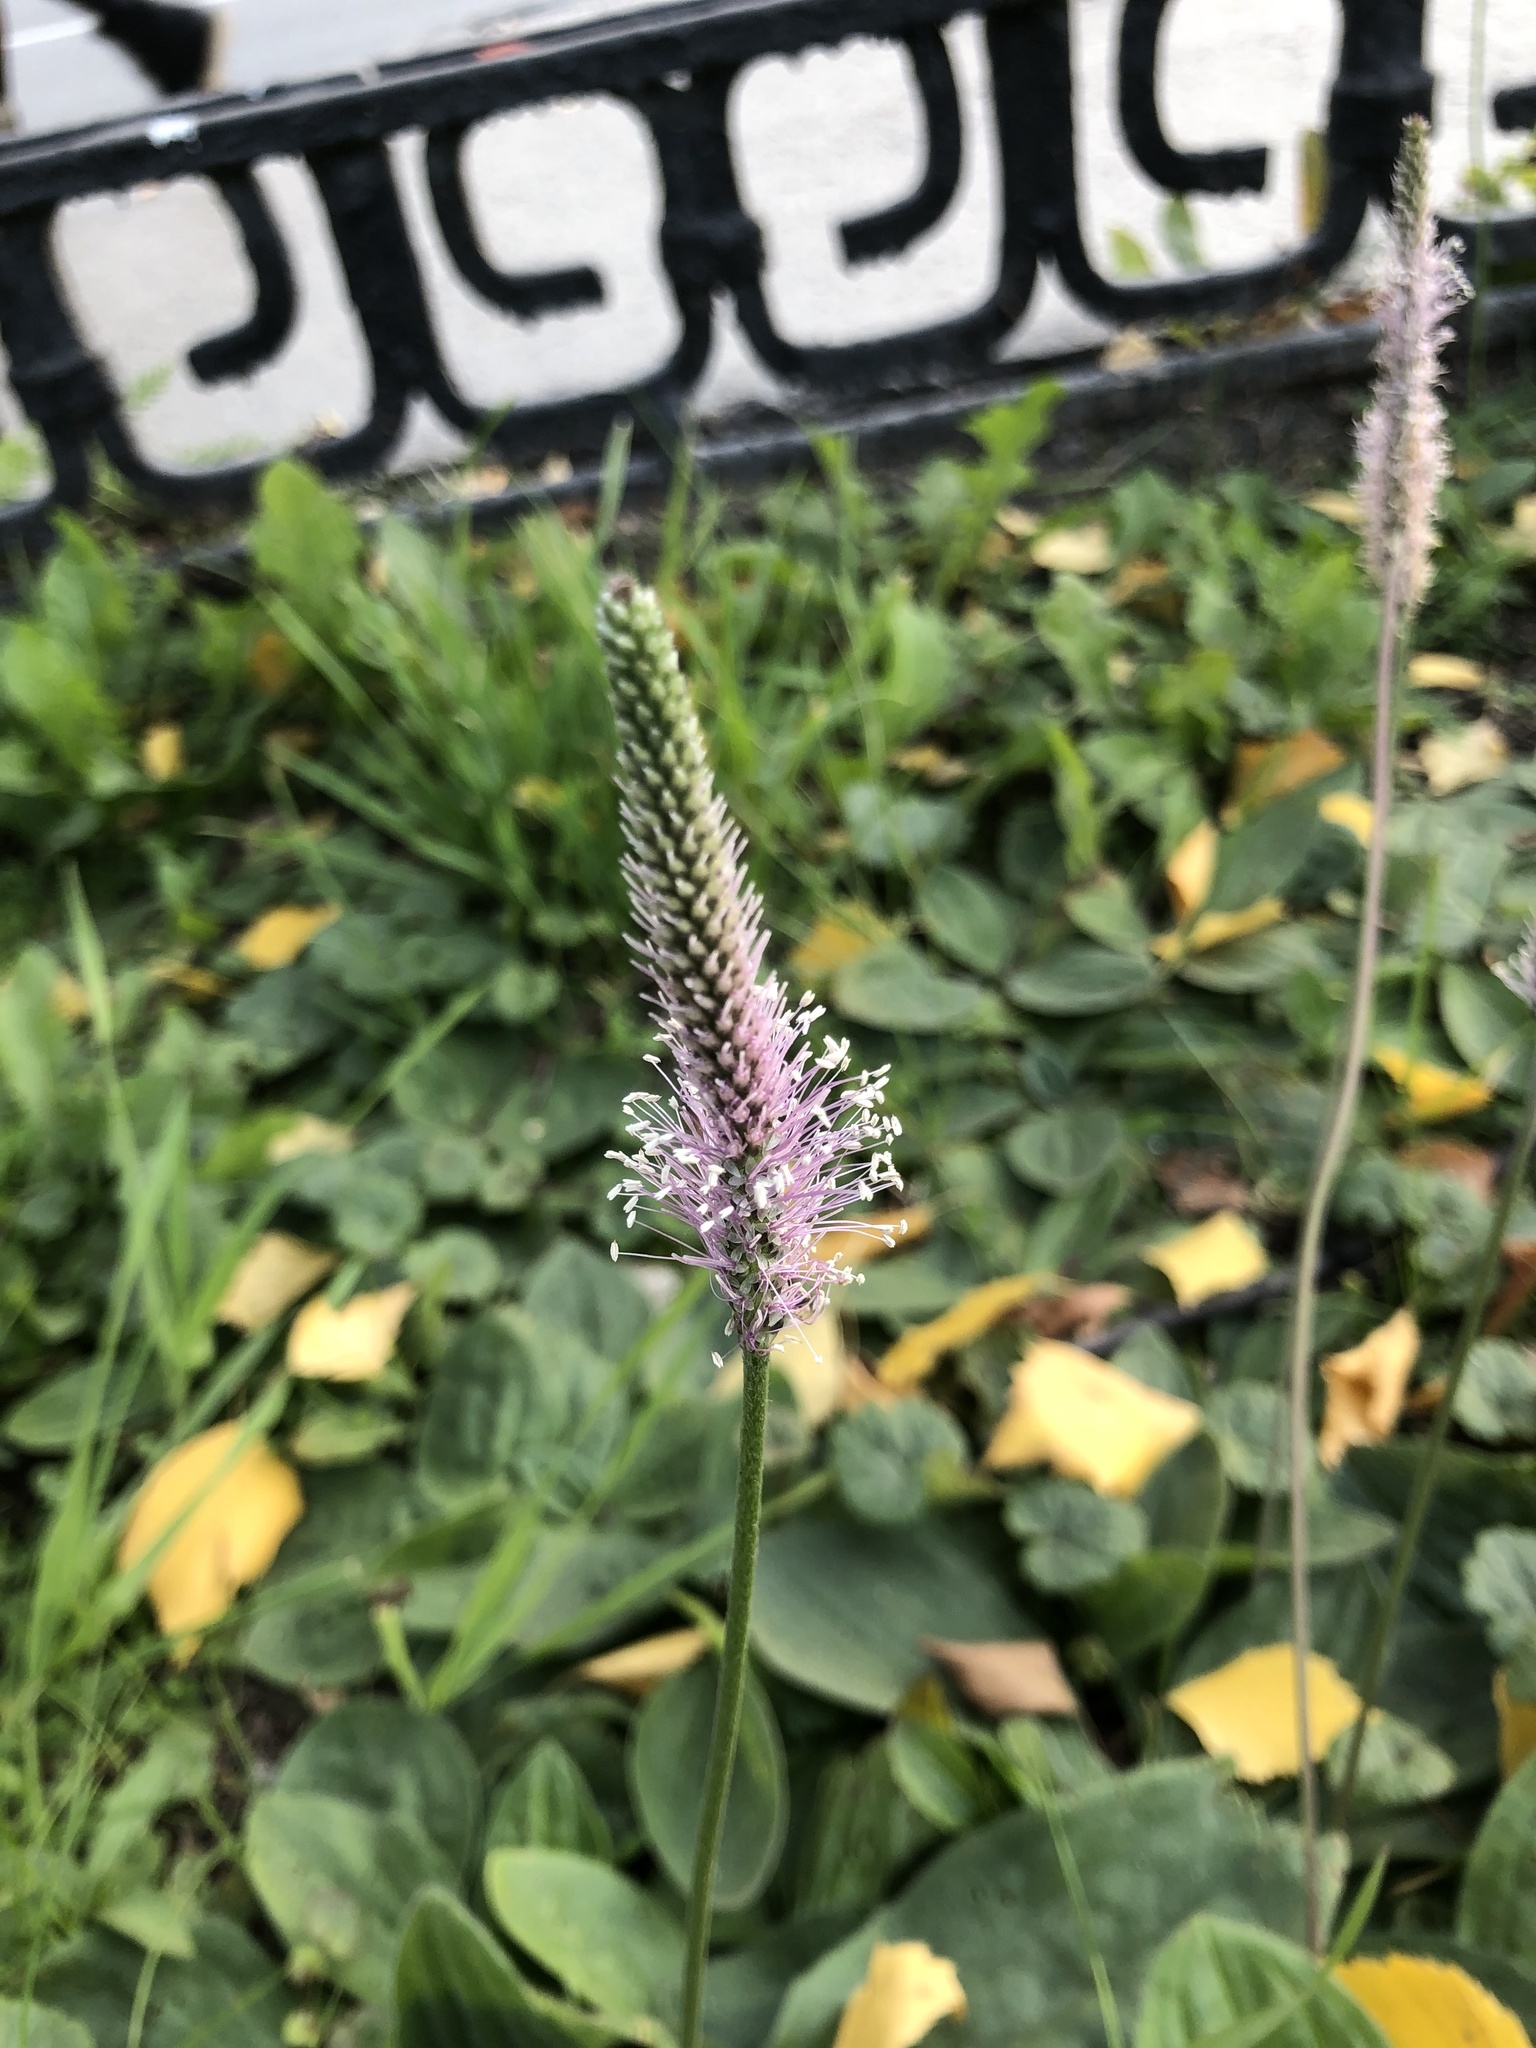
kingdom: Plantae
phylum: Tracheophyta
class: Magnoliopsida
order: Lamiales
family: Plantaginaceae
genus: Plantago
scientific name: Plantago media
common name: Hoary plantain
